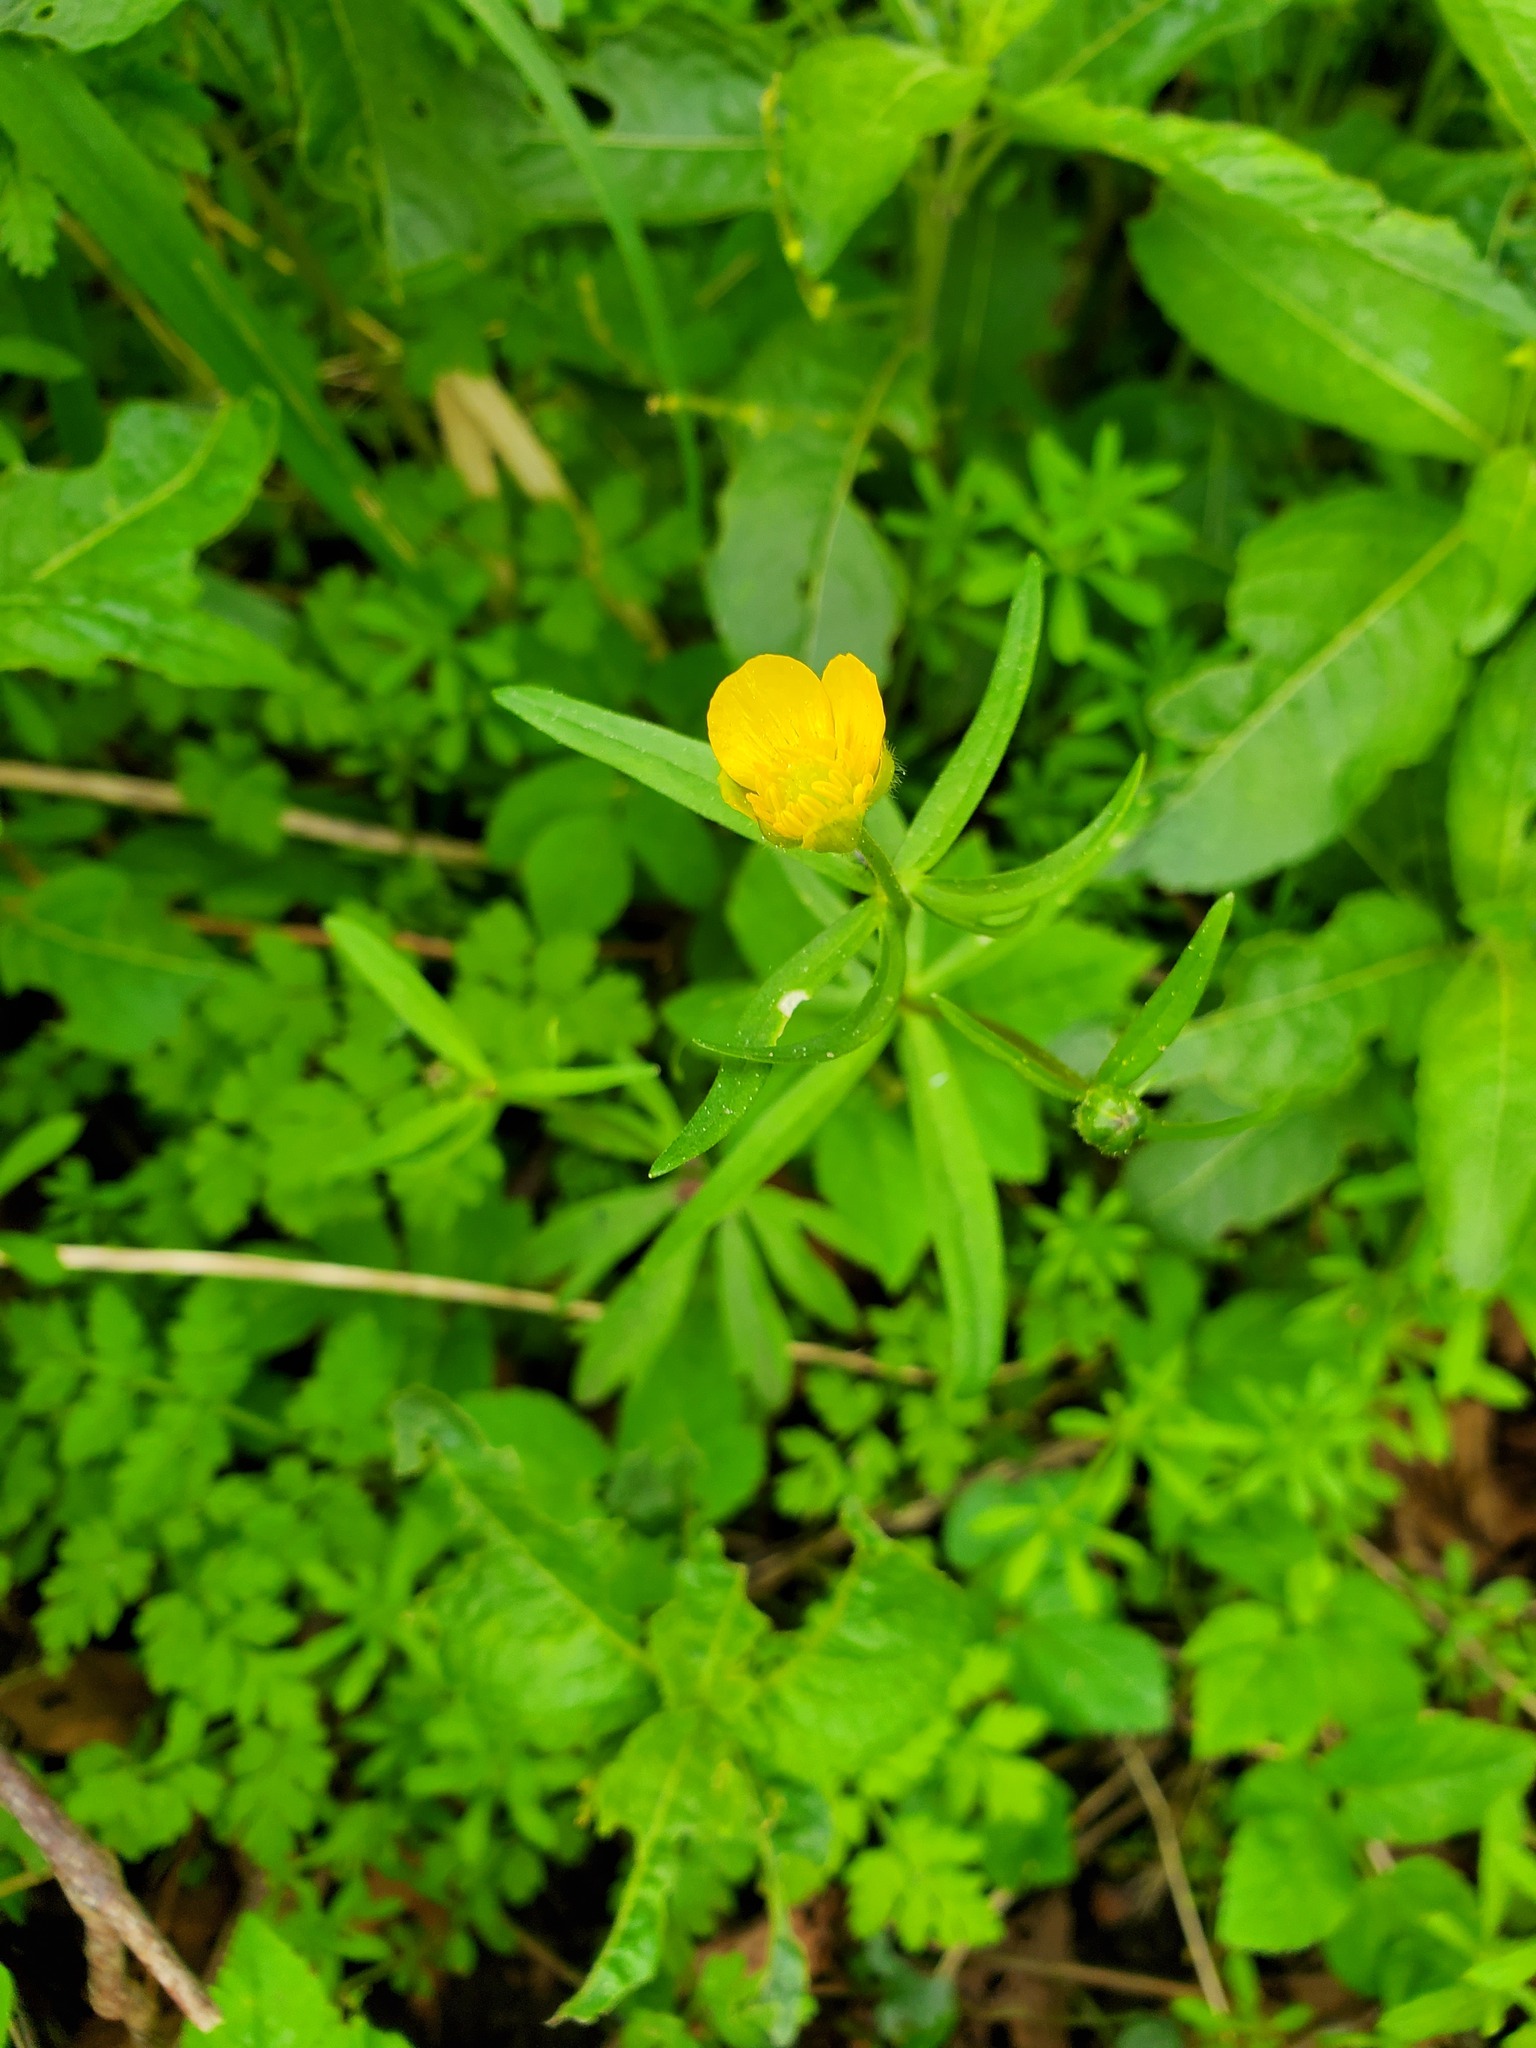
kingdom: Plantae
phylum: Tracheophyta
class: Magnoliopsida
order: Ranunculales
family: Ranunculaceae
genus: Ranunculus
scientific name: Ranunculus auricomus
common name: Goldilocks buttercup
